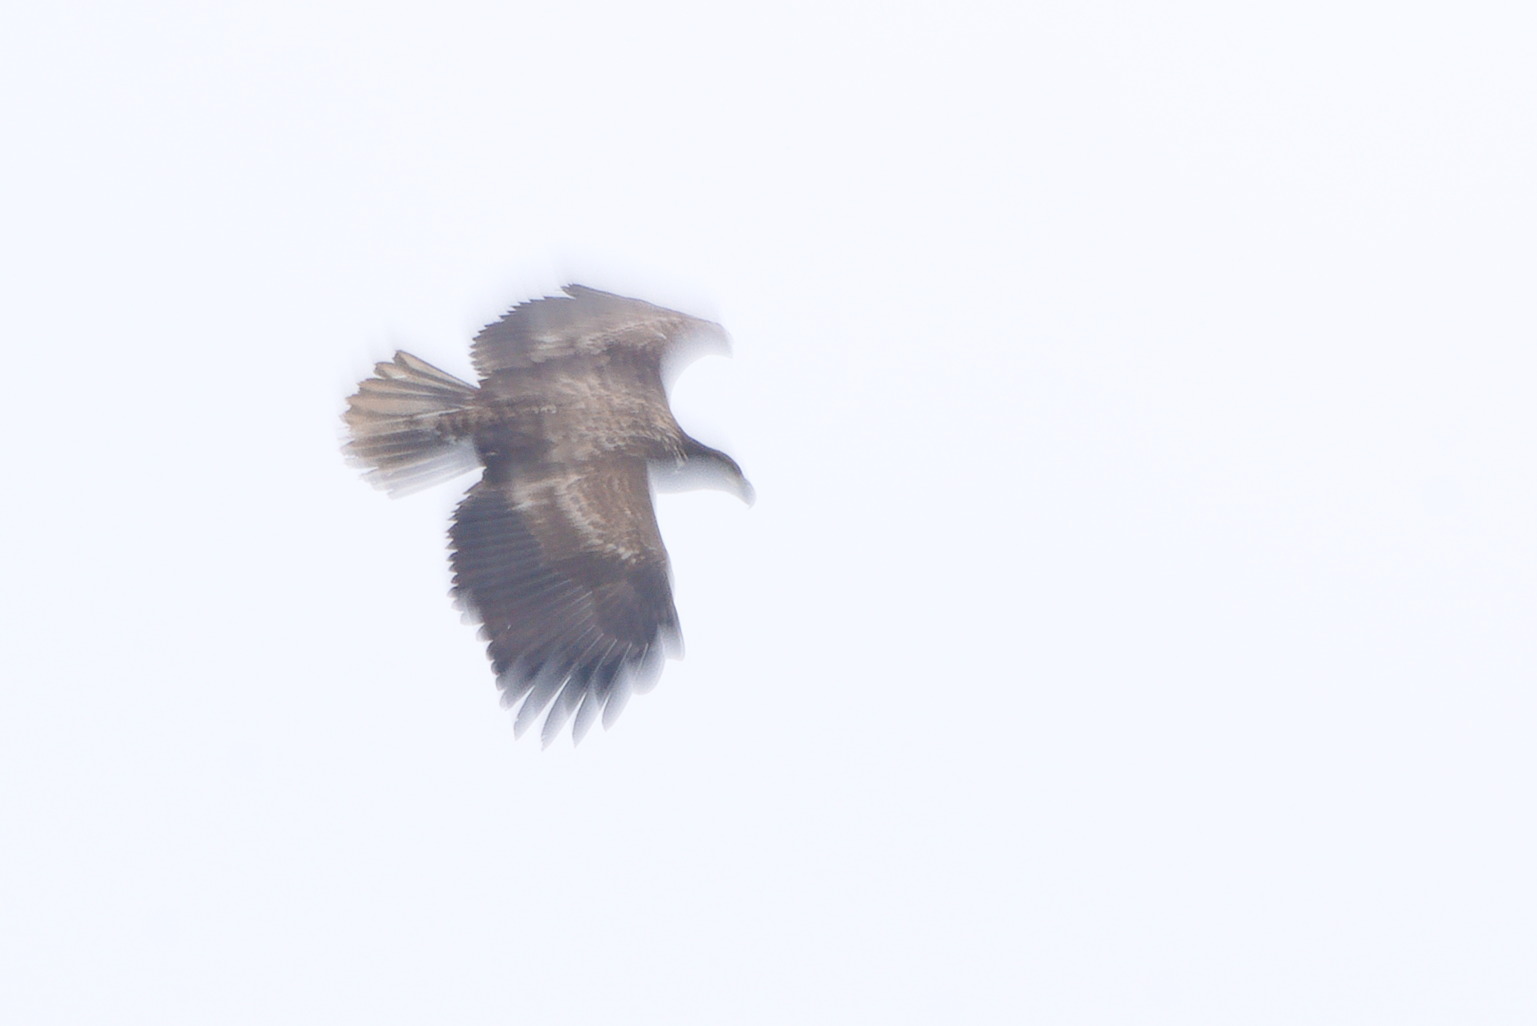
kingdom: Animalia
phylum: Chordata
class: Aves
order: Accipitriformes
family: Accipitridae
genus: Haliaeetus
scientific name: Haliaeetus albicilla
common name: White-tailed eagle
